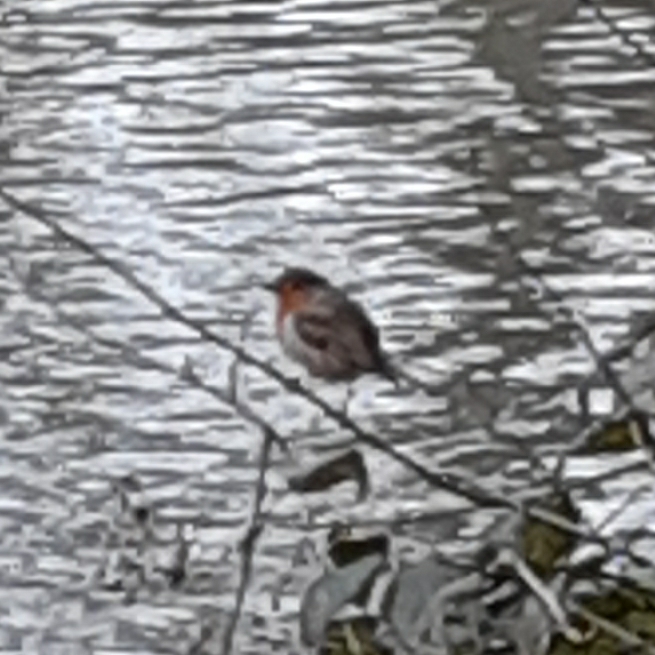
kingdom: Animalia
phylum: Chordata
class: Aves
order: Passeriformes
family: Muscicapidae
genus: Erithacus
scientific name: Erithacus rubecula
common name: European robin
